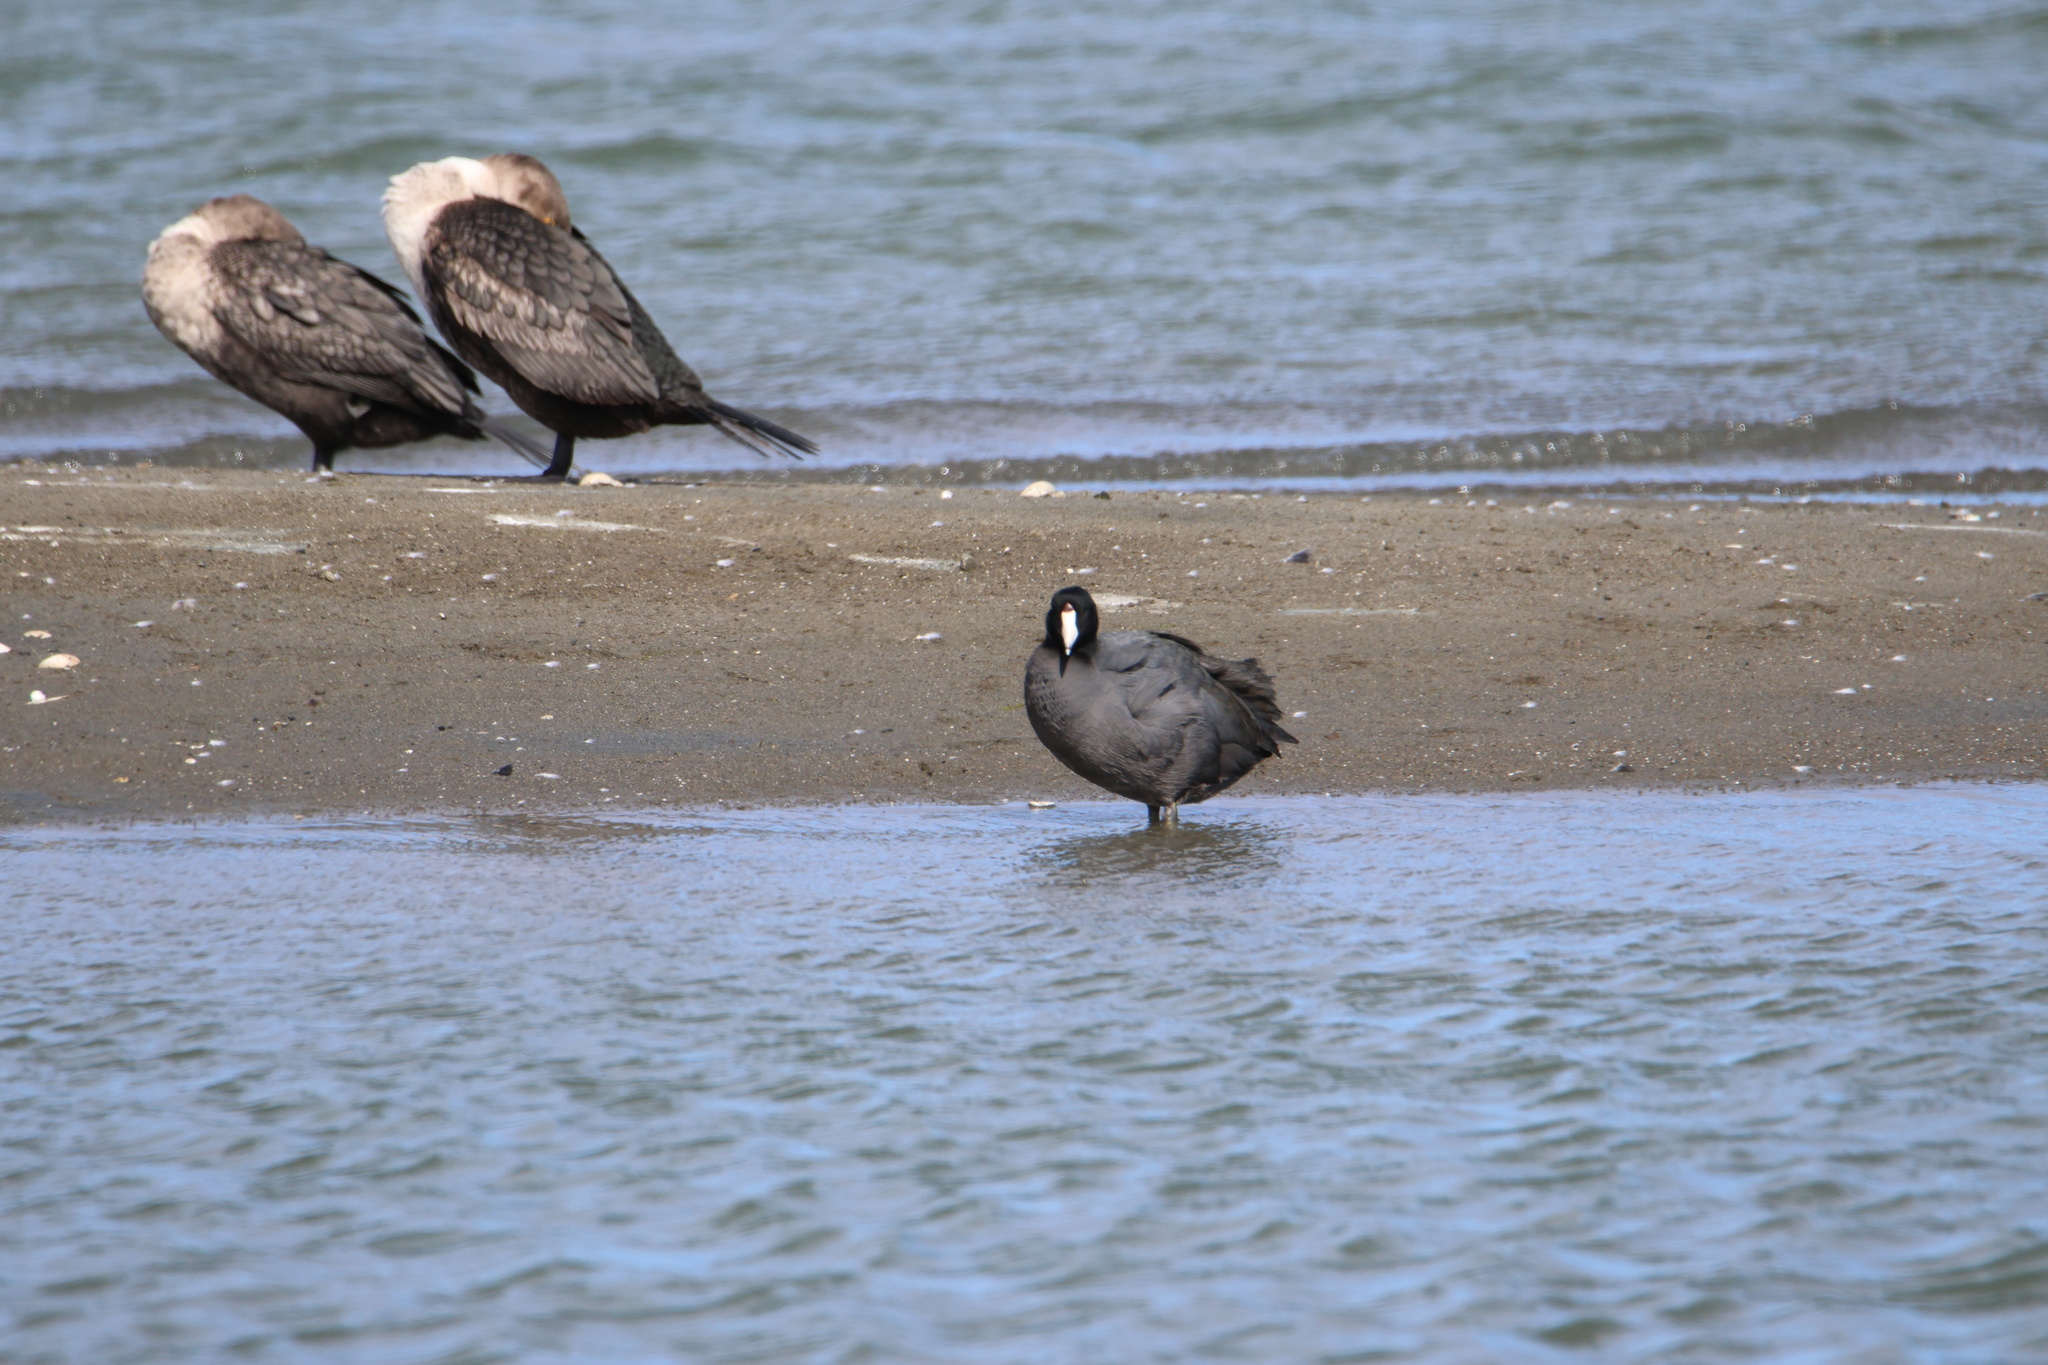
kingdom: Animalia
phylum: Chordata
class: Aves
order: Gruiformes
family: Rallidae
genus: Fulica
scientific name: Fulica americana
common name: American coot
